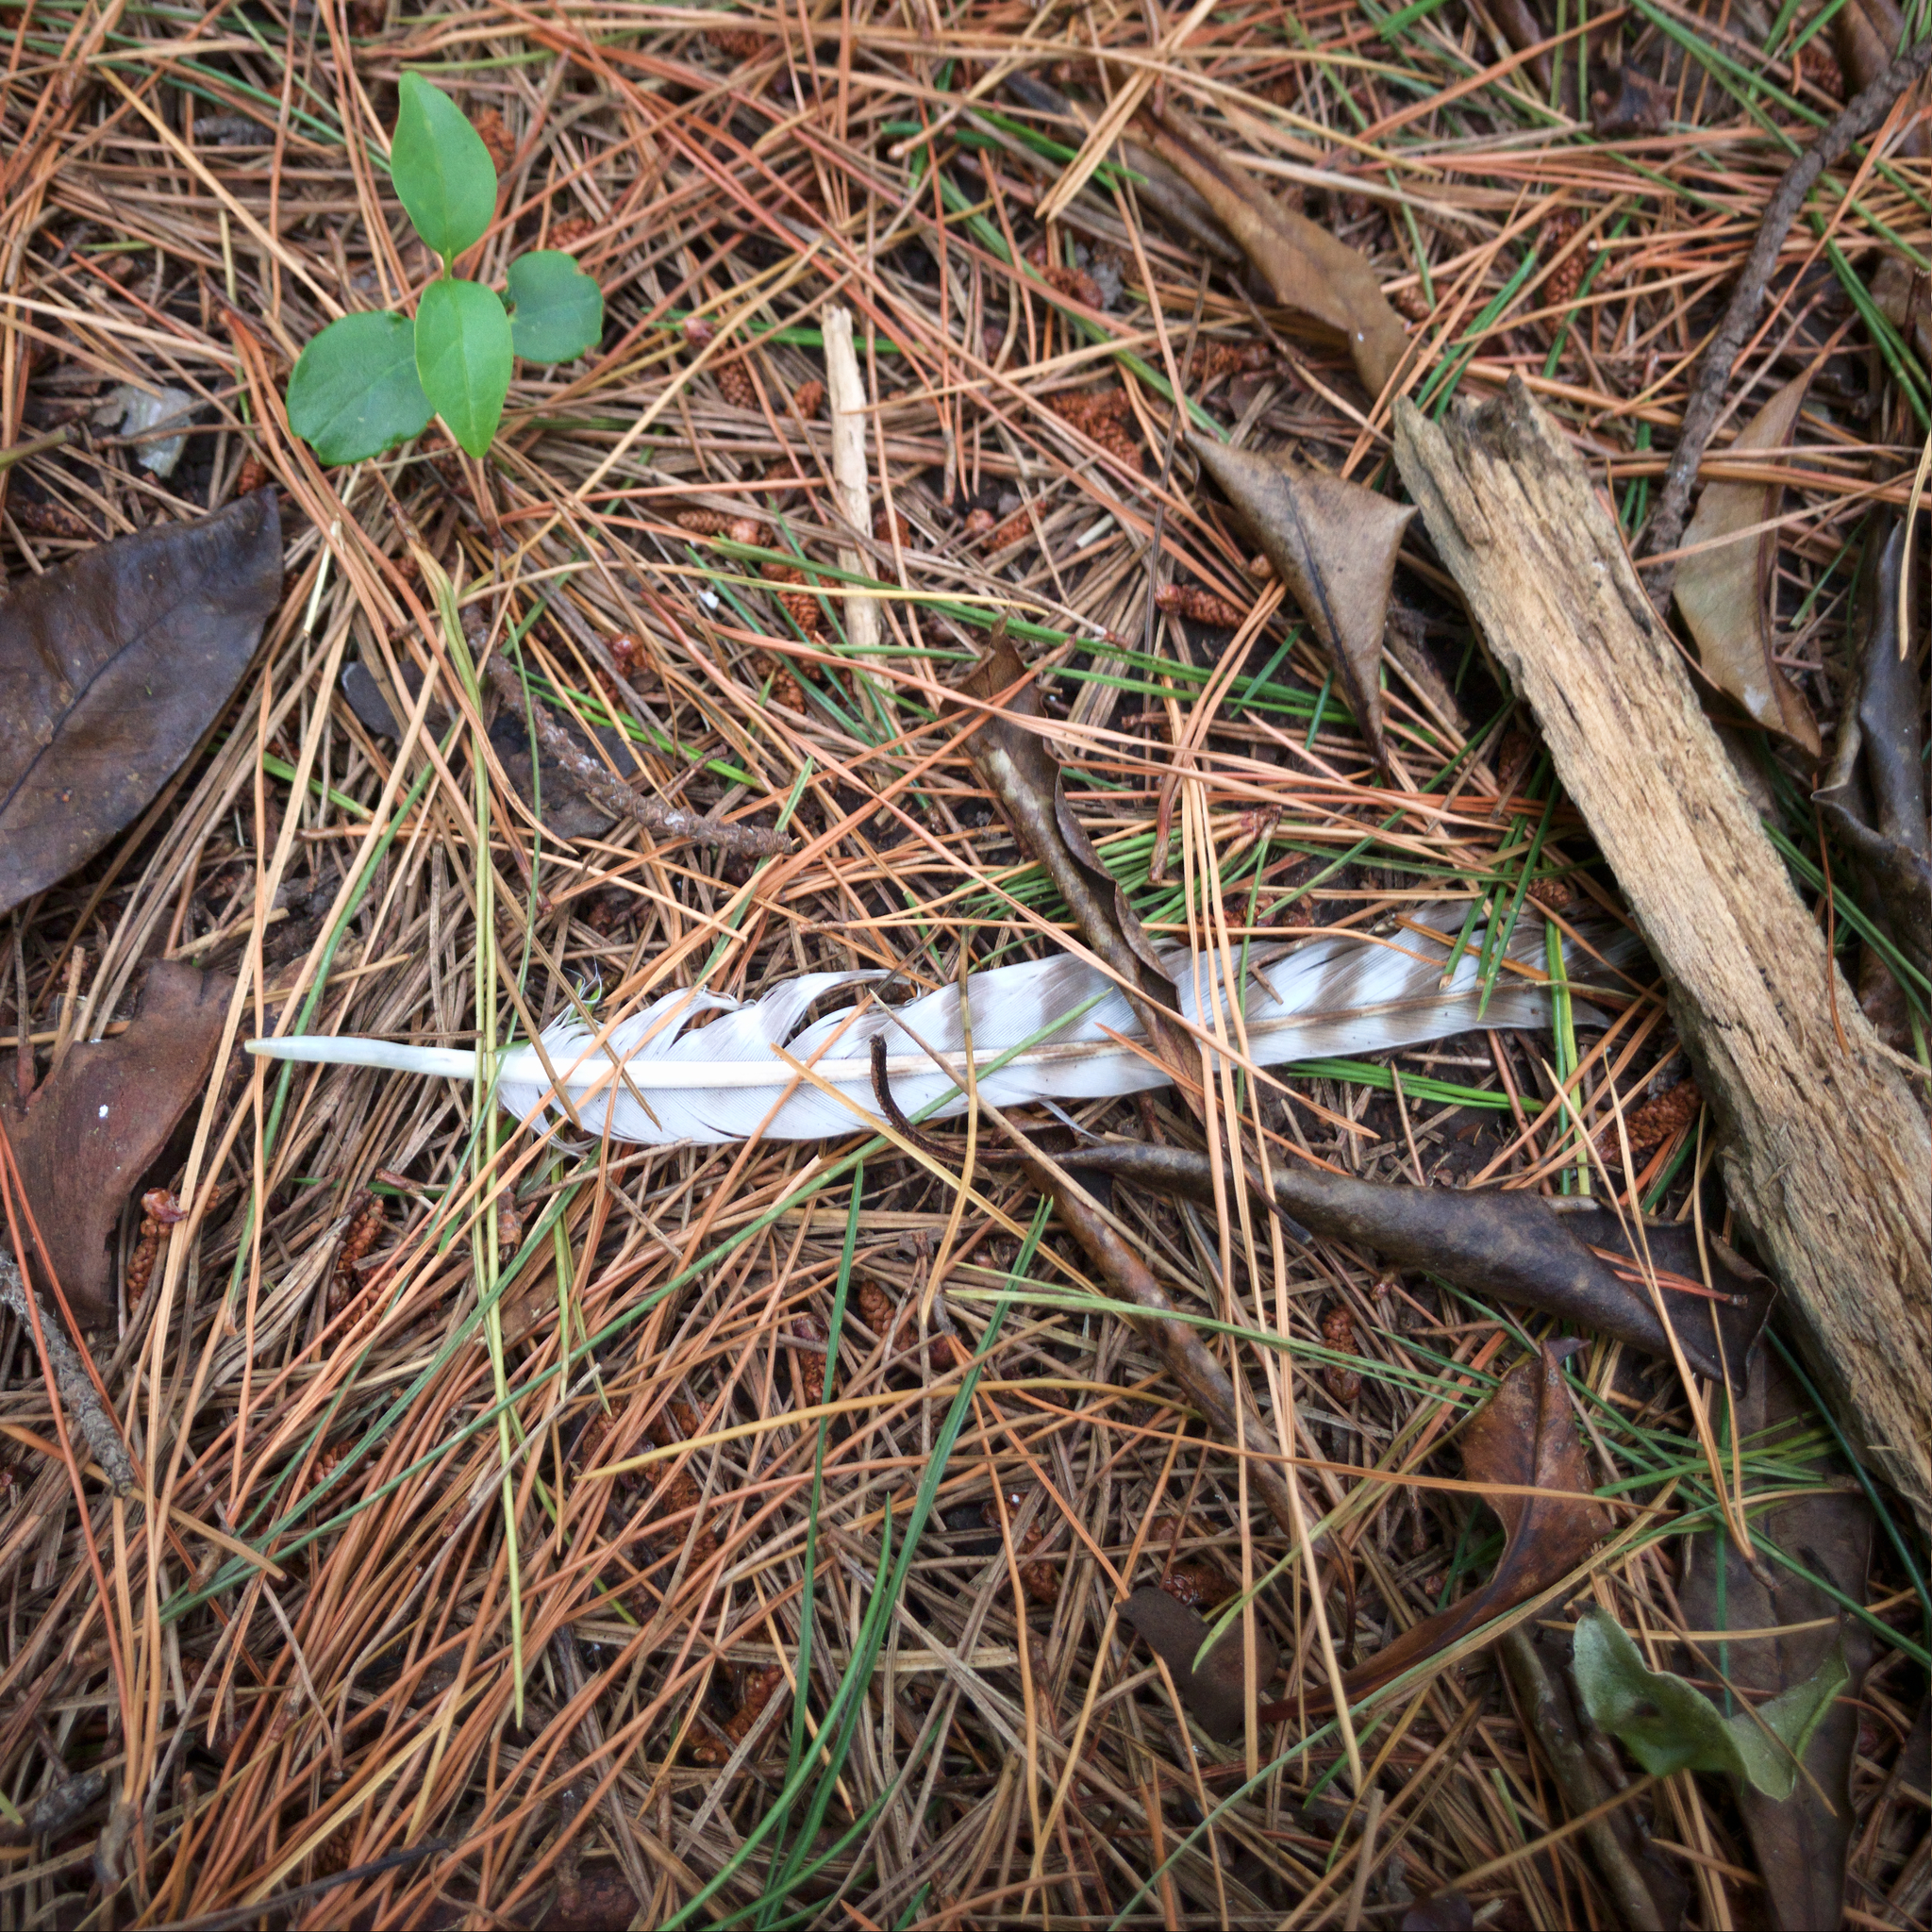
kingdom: Animalia
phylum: Chordata
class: Aves
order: Accipitriformes
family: Accipitridae
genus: Accipiter
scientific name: Accipiter fasciatus
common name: Brown goshawk
